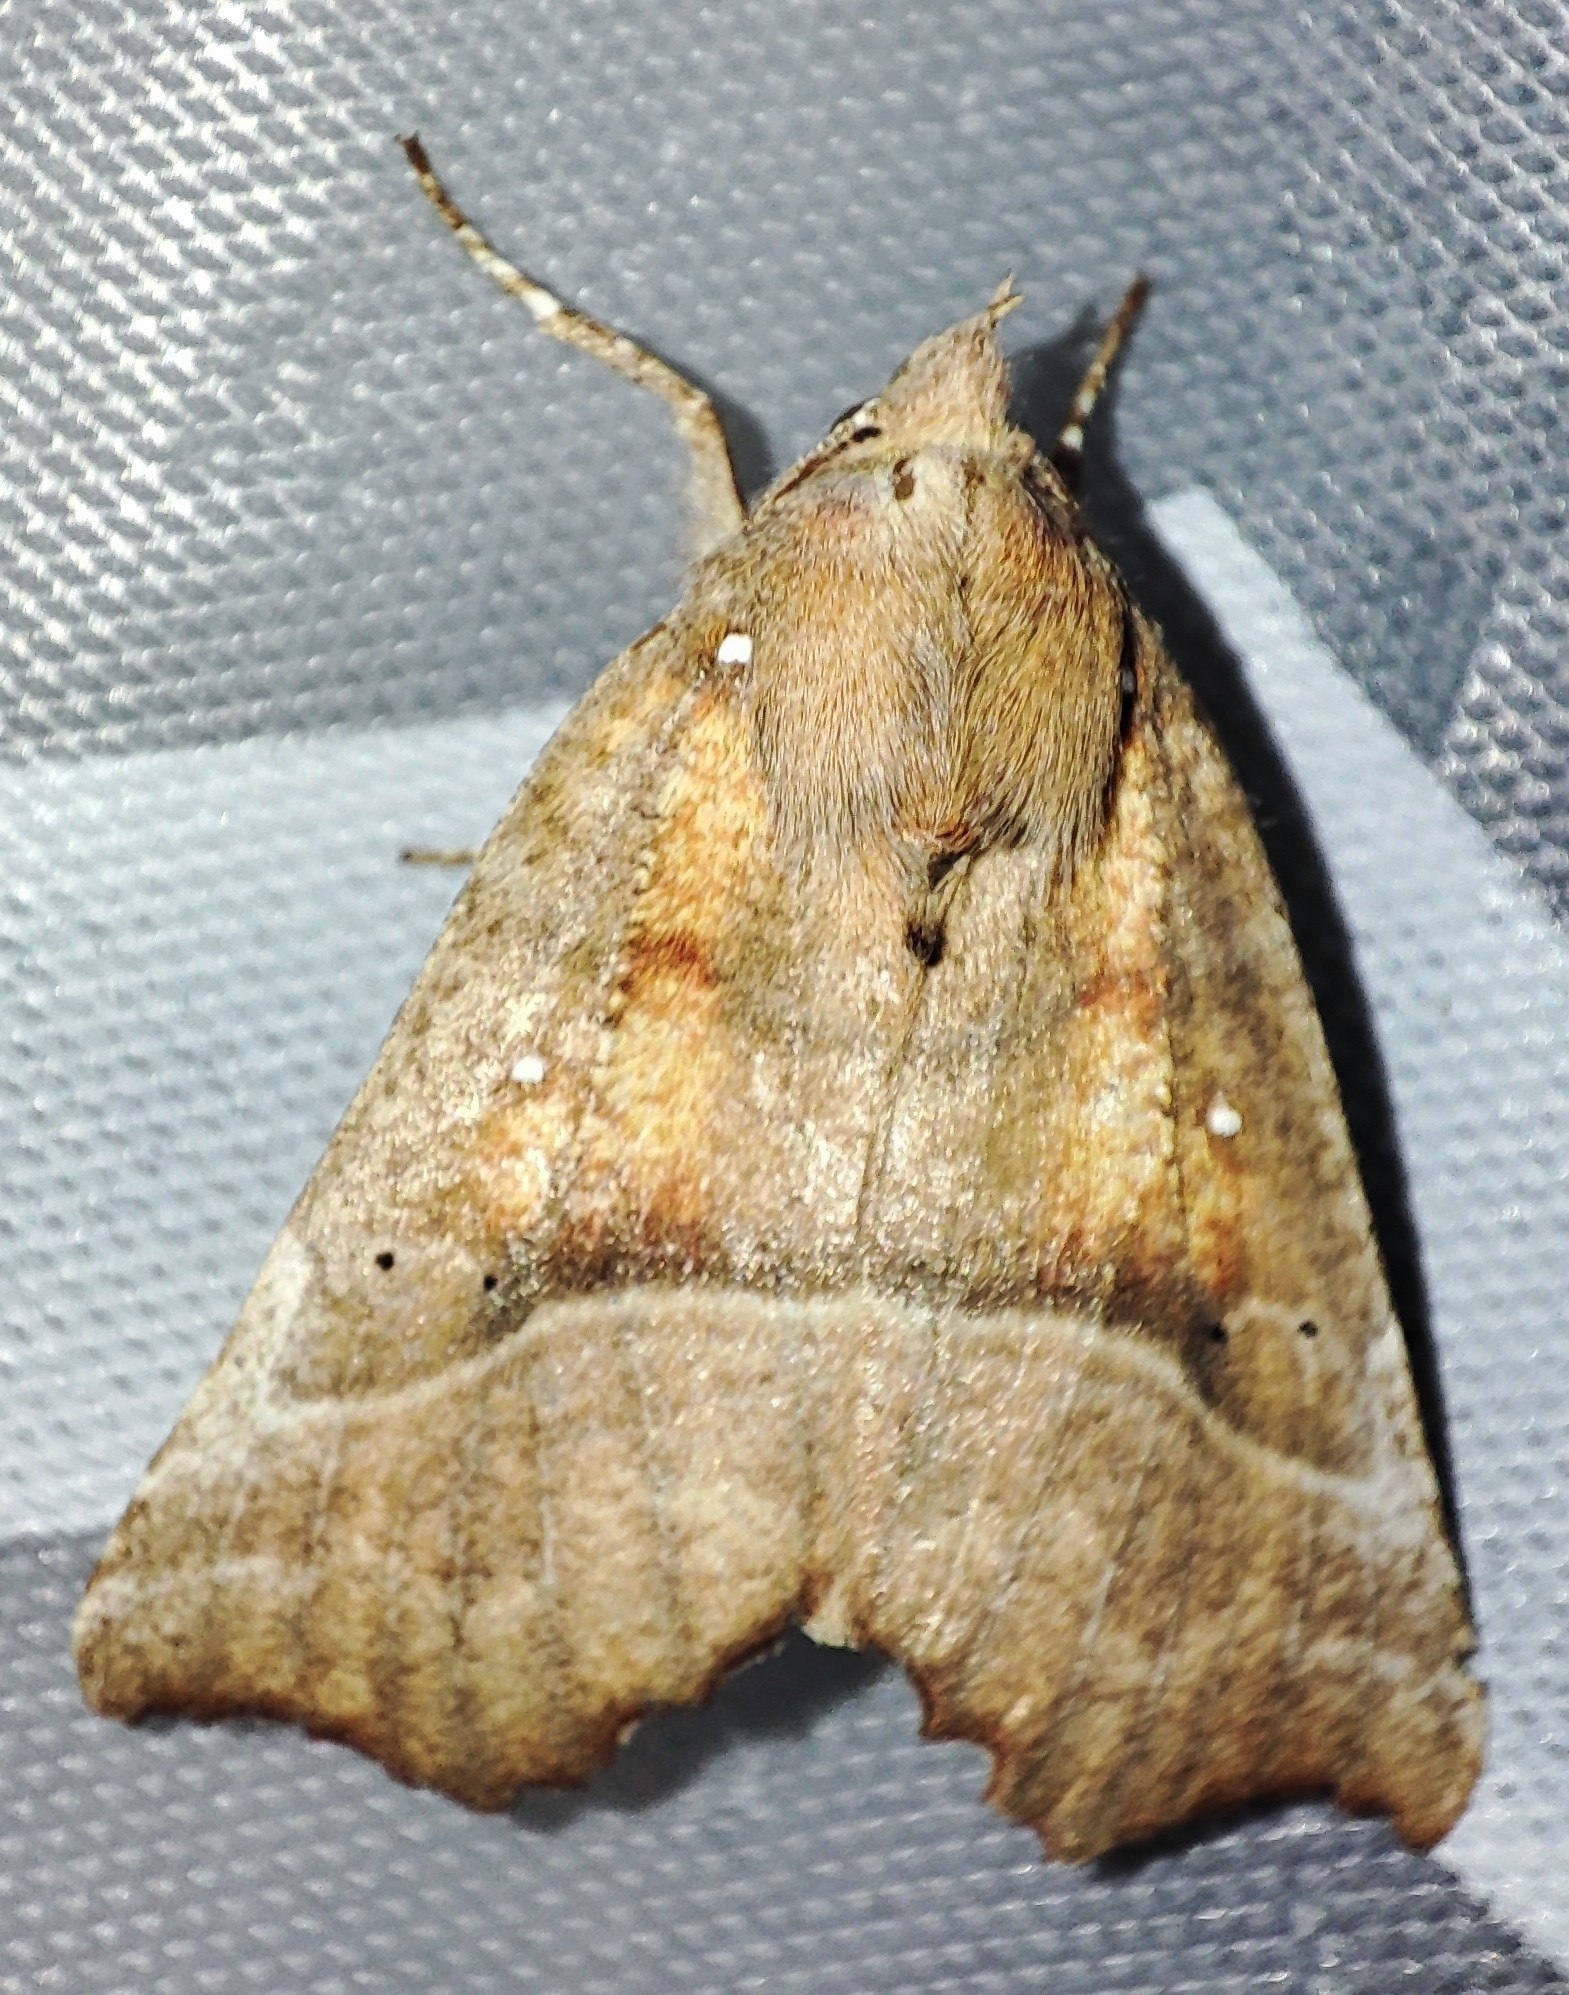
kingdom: Animalia
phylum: Arthropoda
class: Insecta
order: Lepidoptera
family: Erebidae
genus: Scoliopteryx
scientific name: Scoliopteryx libatrix
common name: Herald
